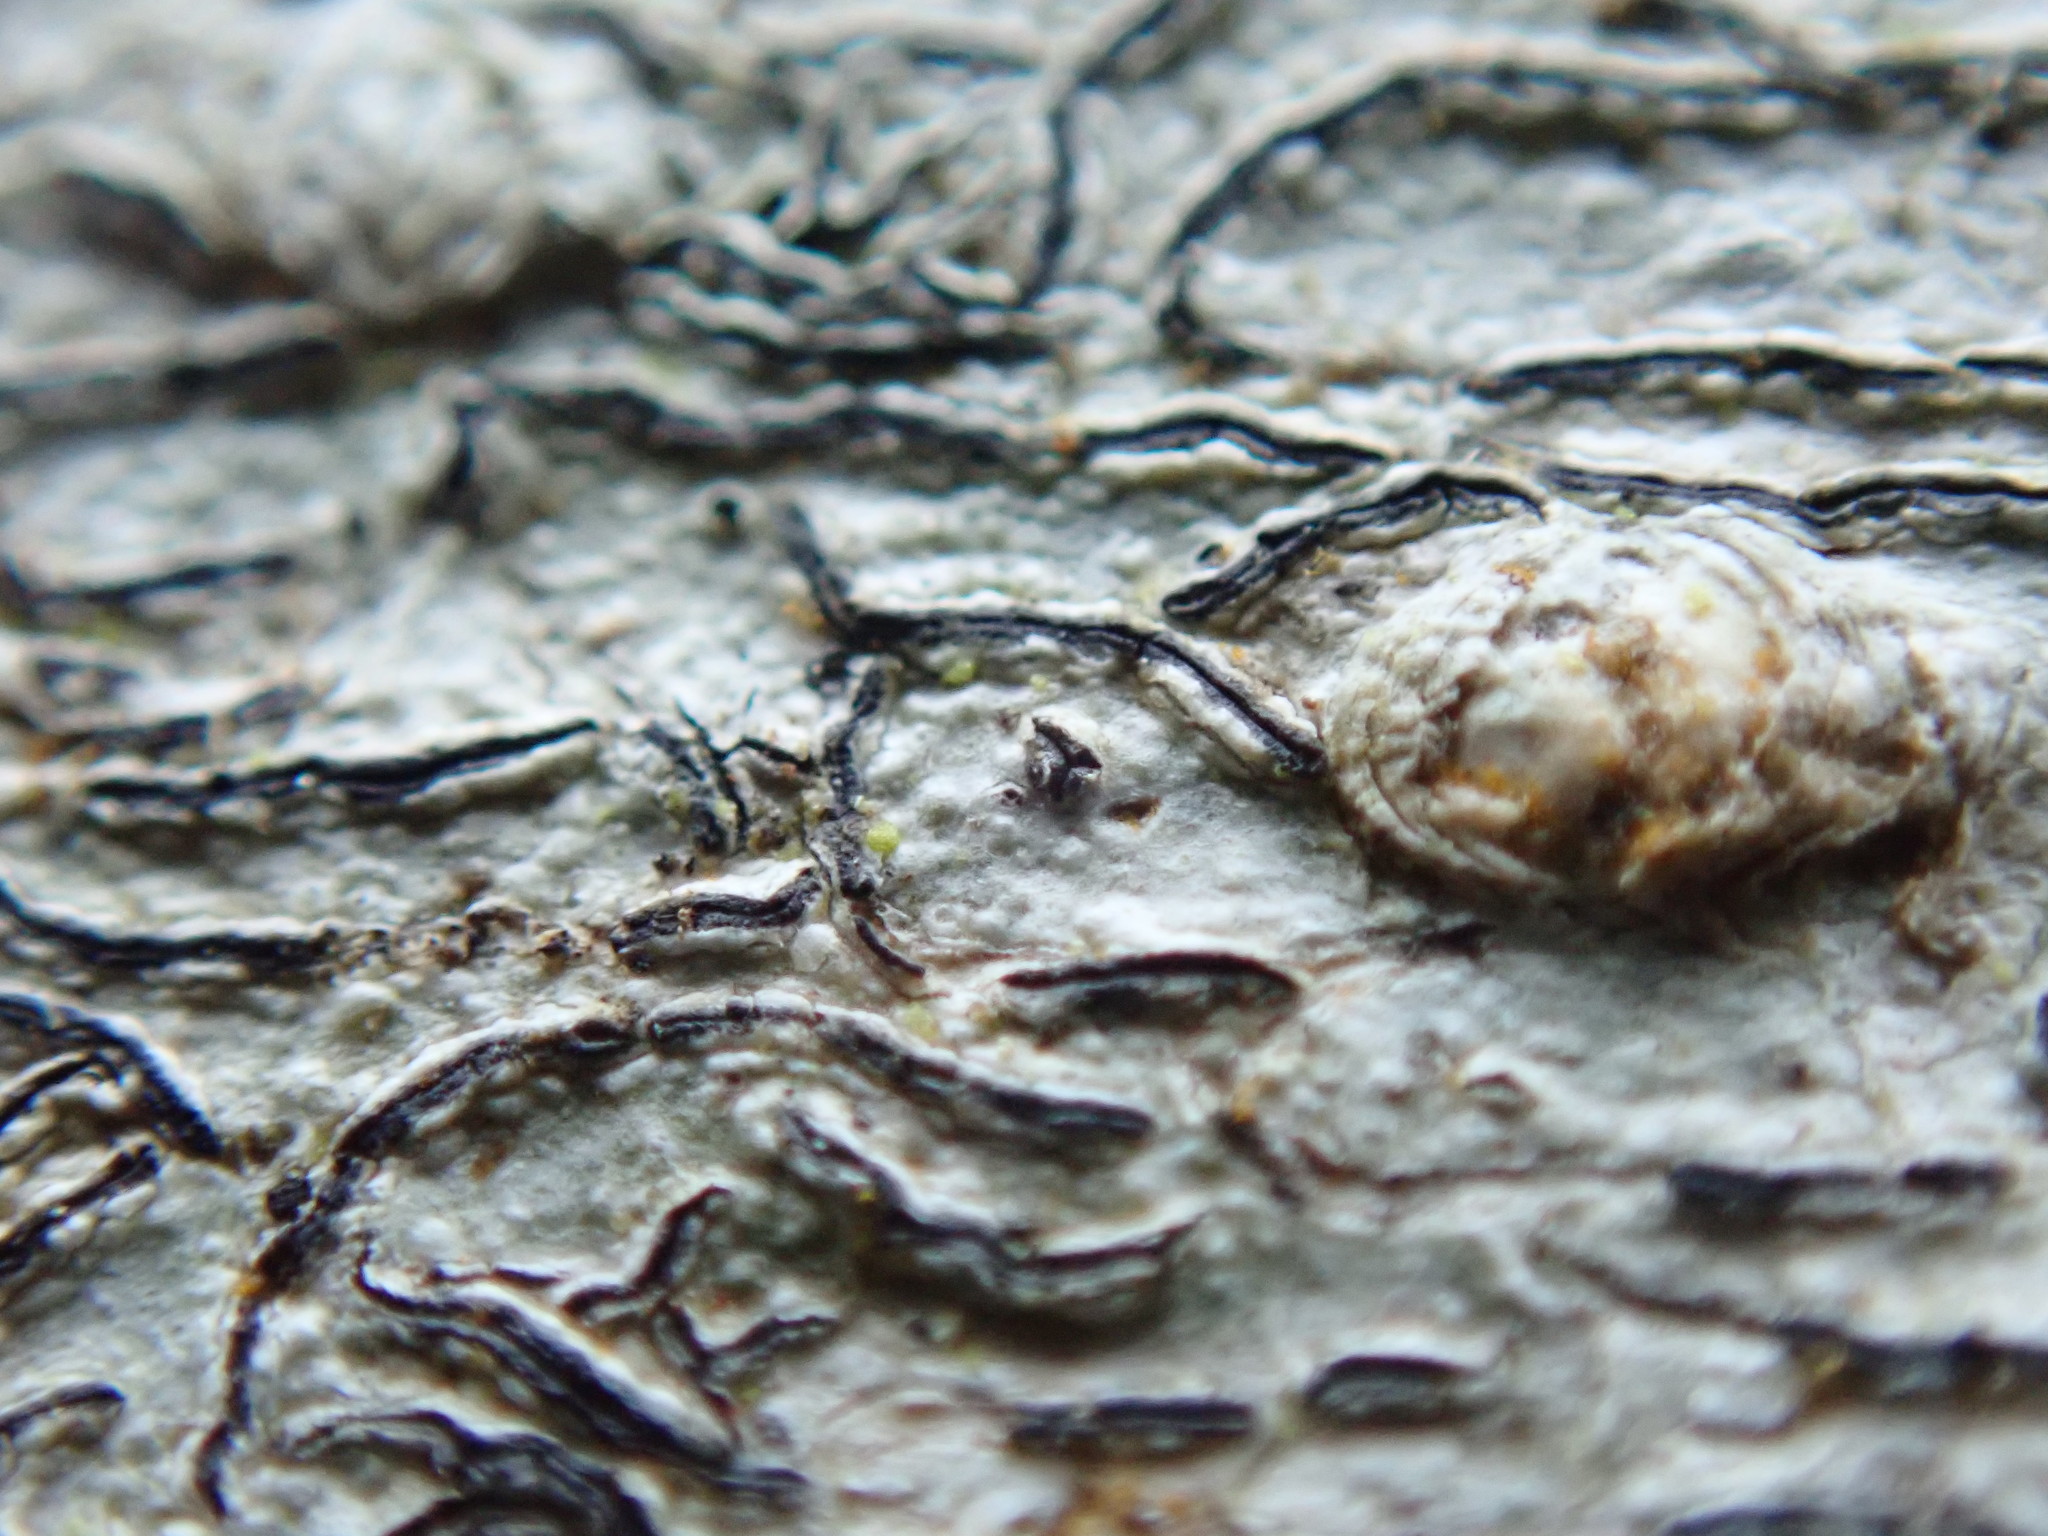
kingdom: Fungi
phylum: Ascomycota
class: Lecanoromycetes
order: Ostropales
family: Graphidaceae
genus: Graphis
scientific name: Graphis scripta
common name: Script lichen
